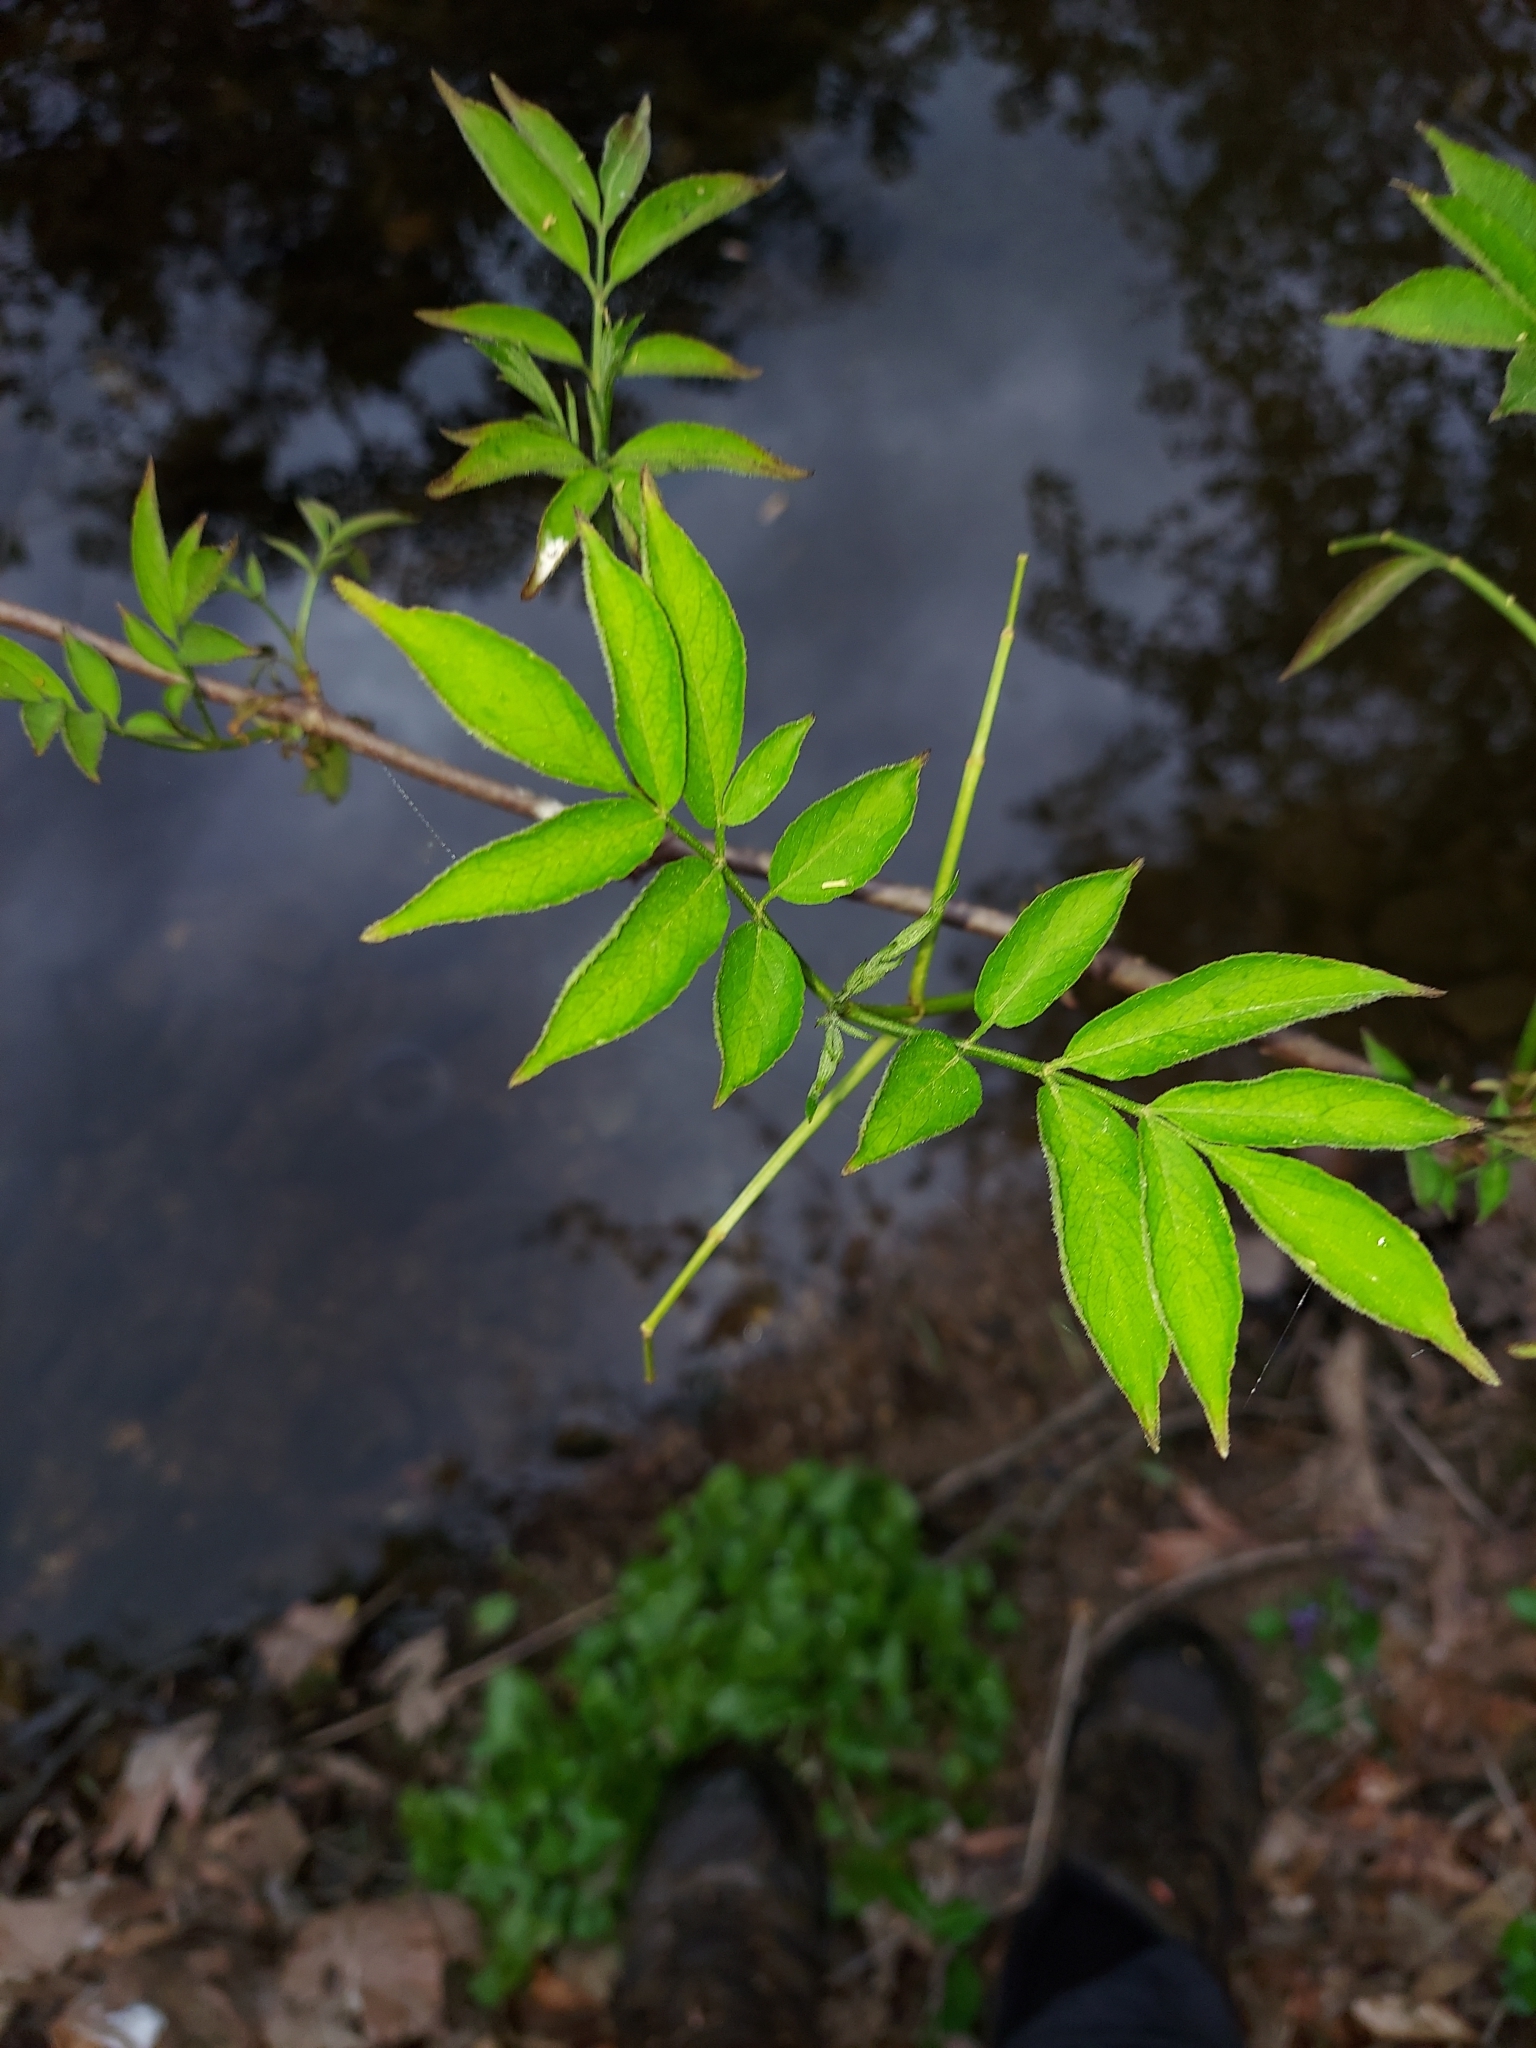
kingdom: Plantae
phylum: Tracheophyta
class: Magnoliopsida
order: Dipsacales
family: Viburnaceae
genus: Sambucus
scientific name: Sambucus canadensis
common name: American elder
